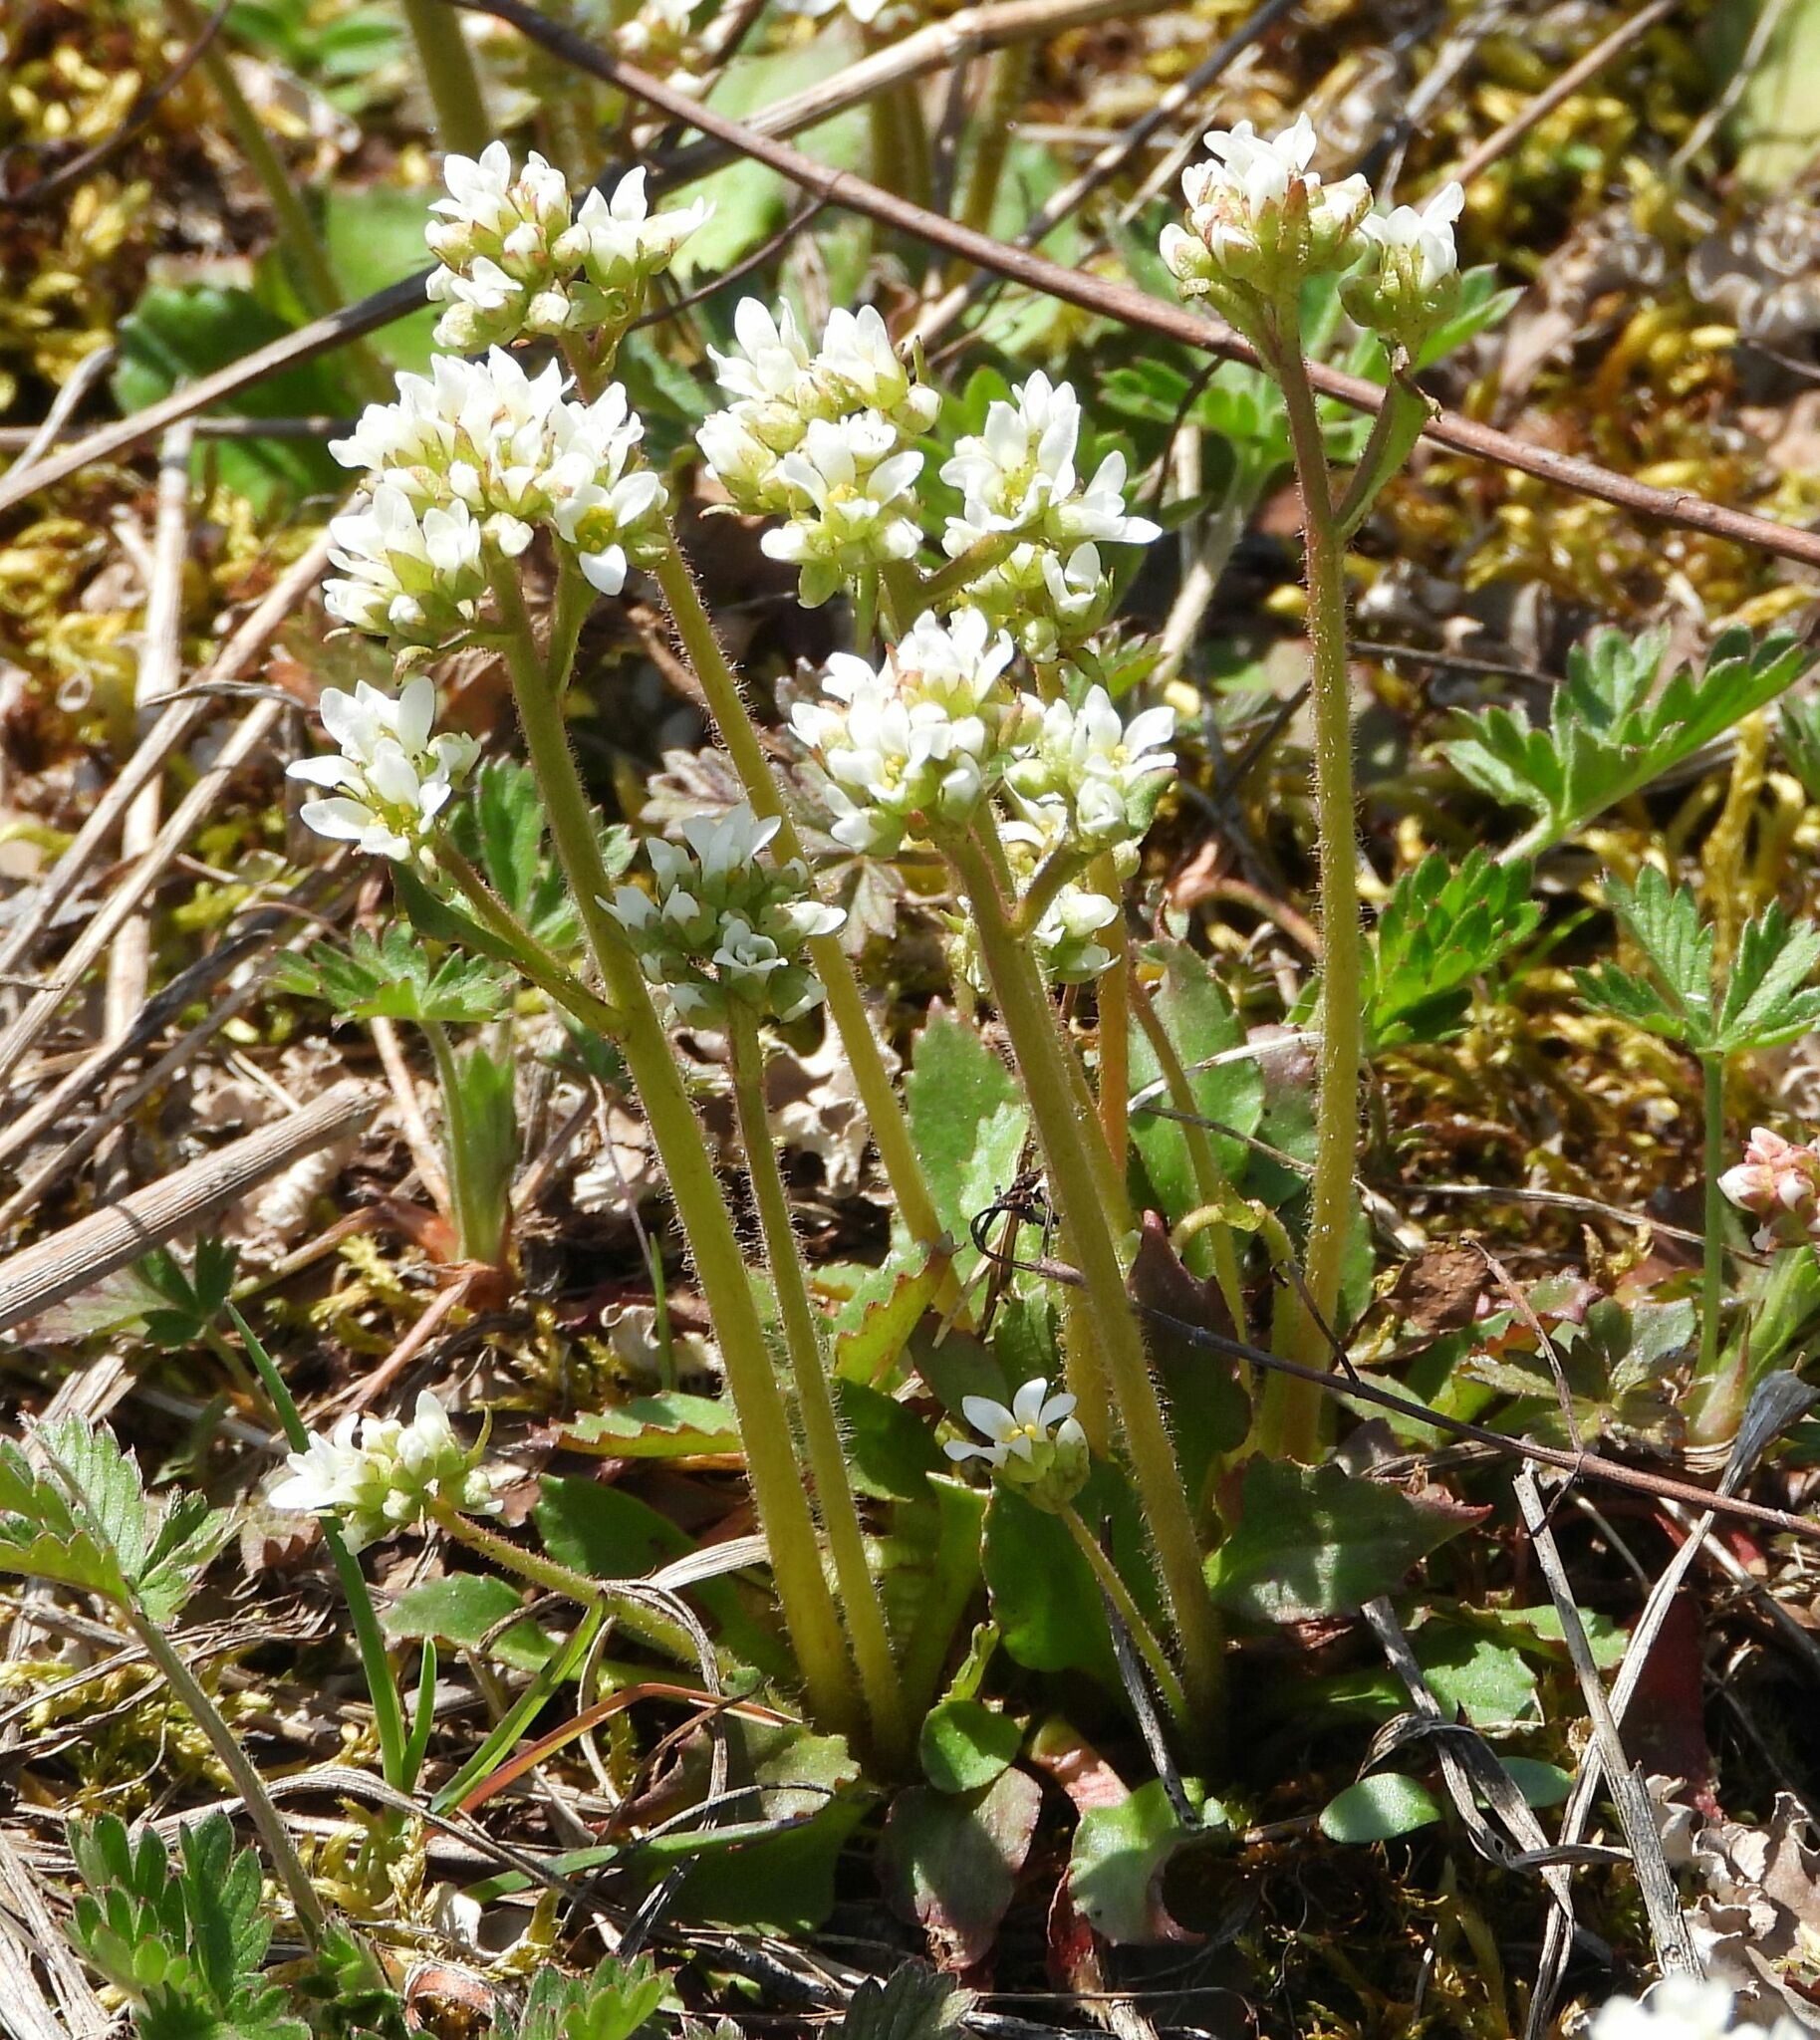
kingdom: Plantae
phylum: Tracheophyta
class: Magnoliopsida
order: Saxifragales
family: Saxifragaceae
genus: Micranthes
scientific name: Micranthes virginiensis
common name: Early saxifrage
